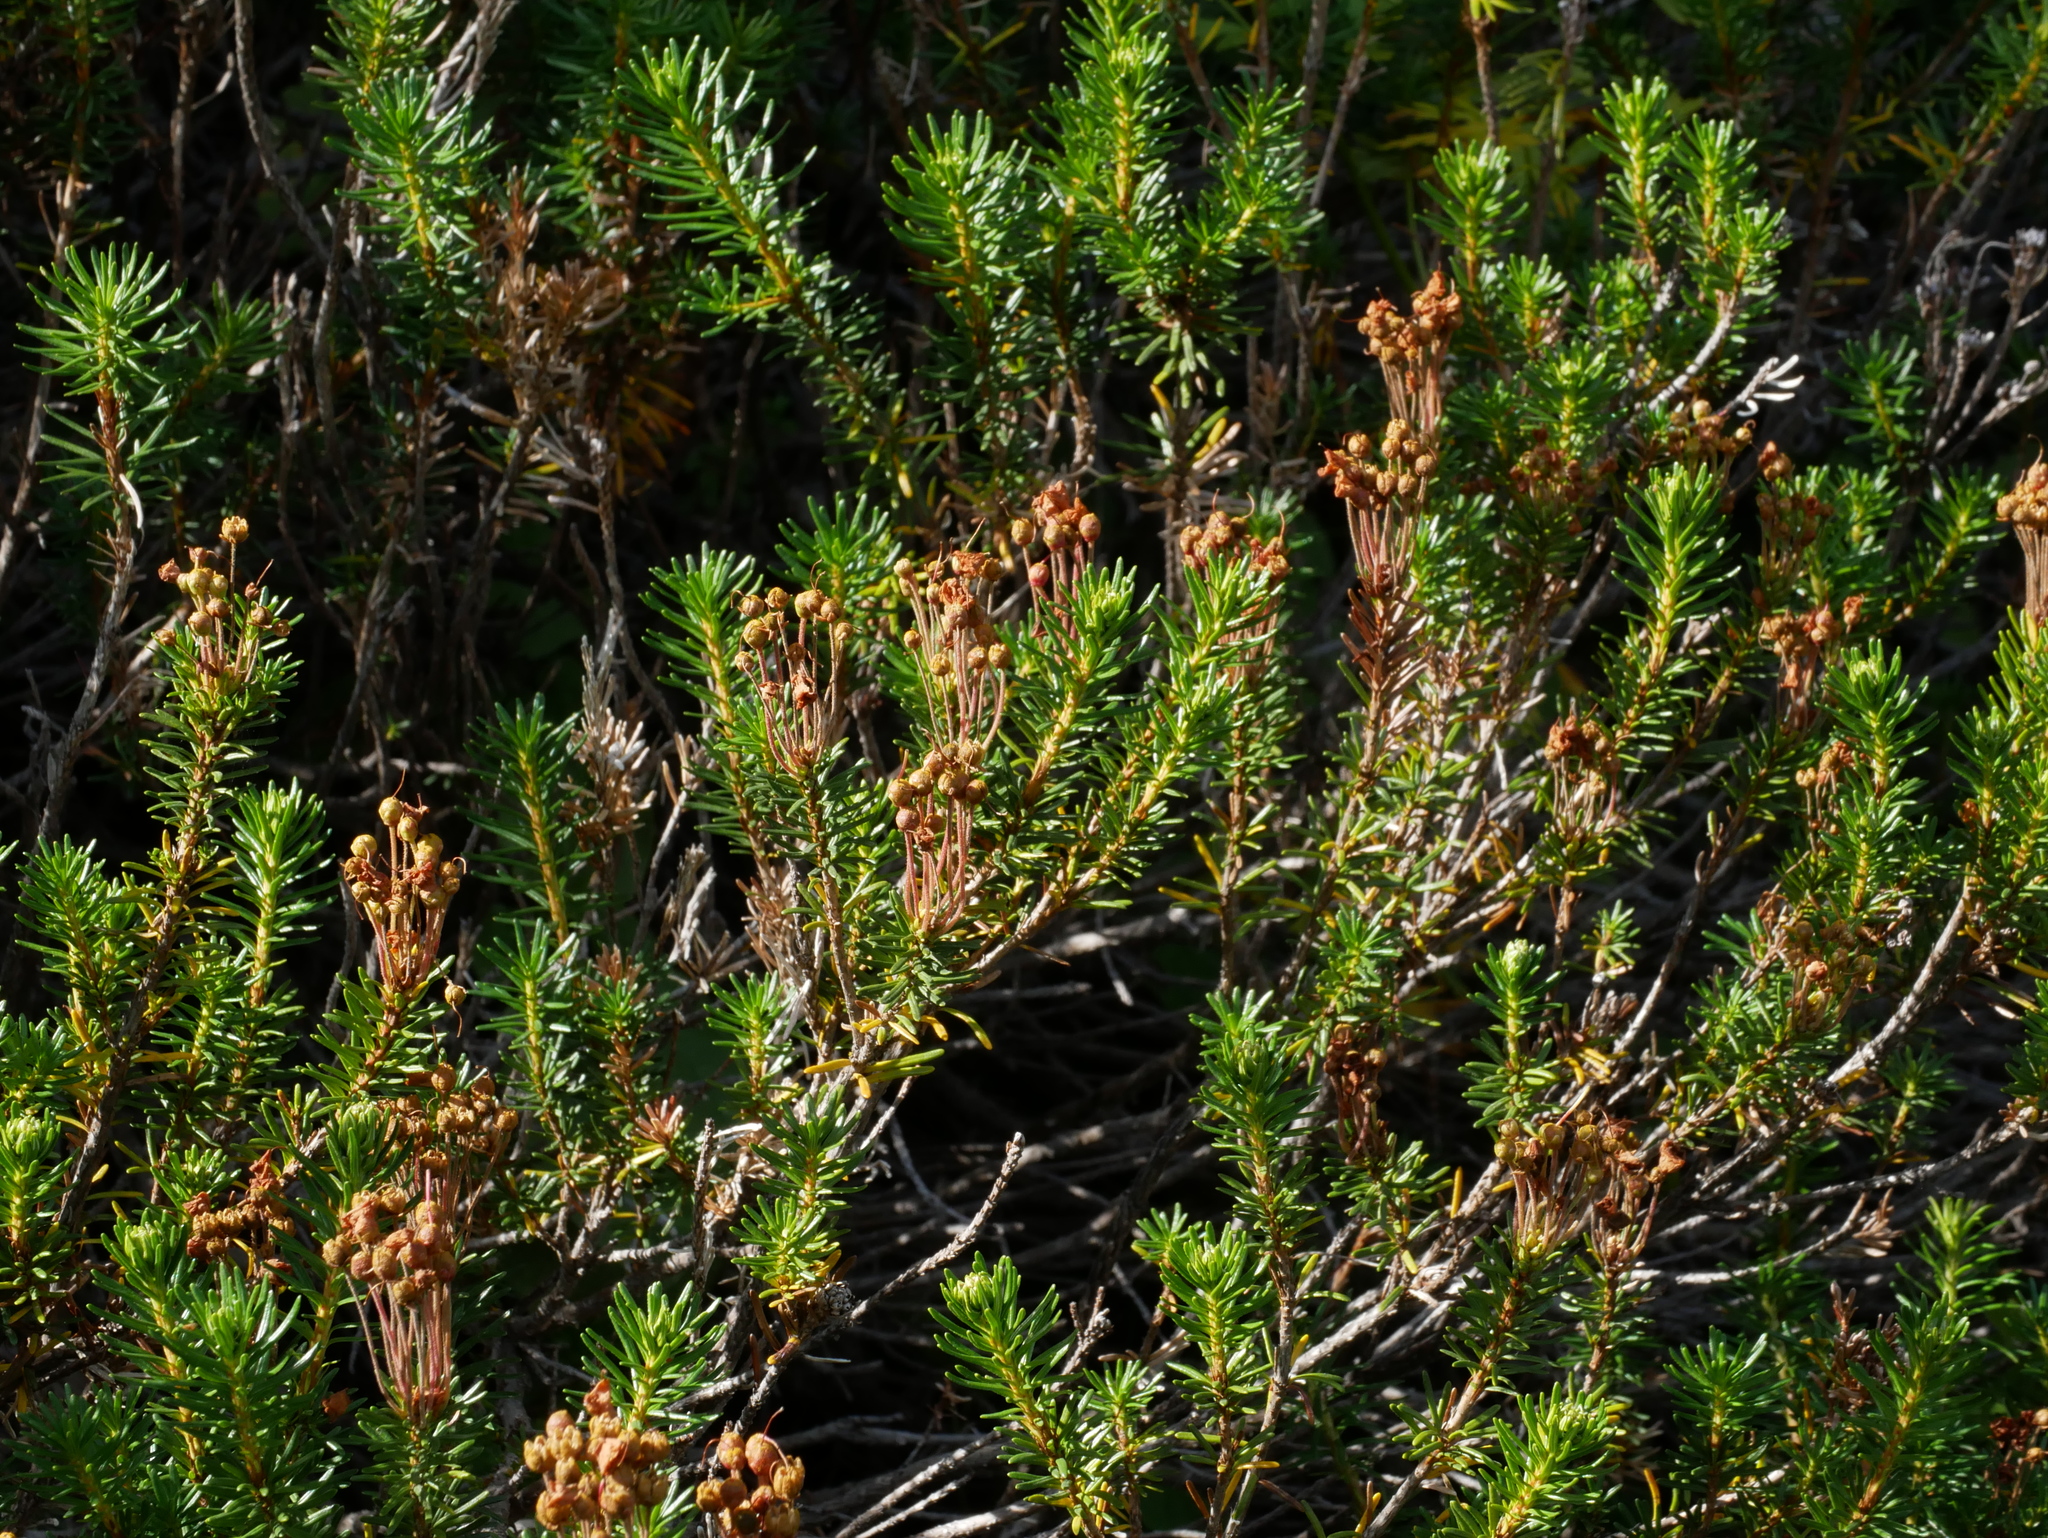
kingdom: Plantae
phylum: Tracheophyta
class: Magnoliopsida
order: Ericales
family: Ericaceae
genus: Phyllodoce
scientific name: Phyllodoce empetriformis
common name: Pink mountain heather
